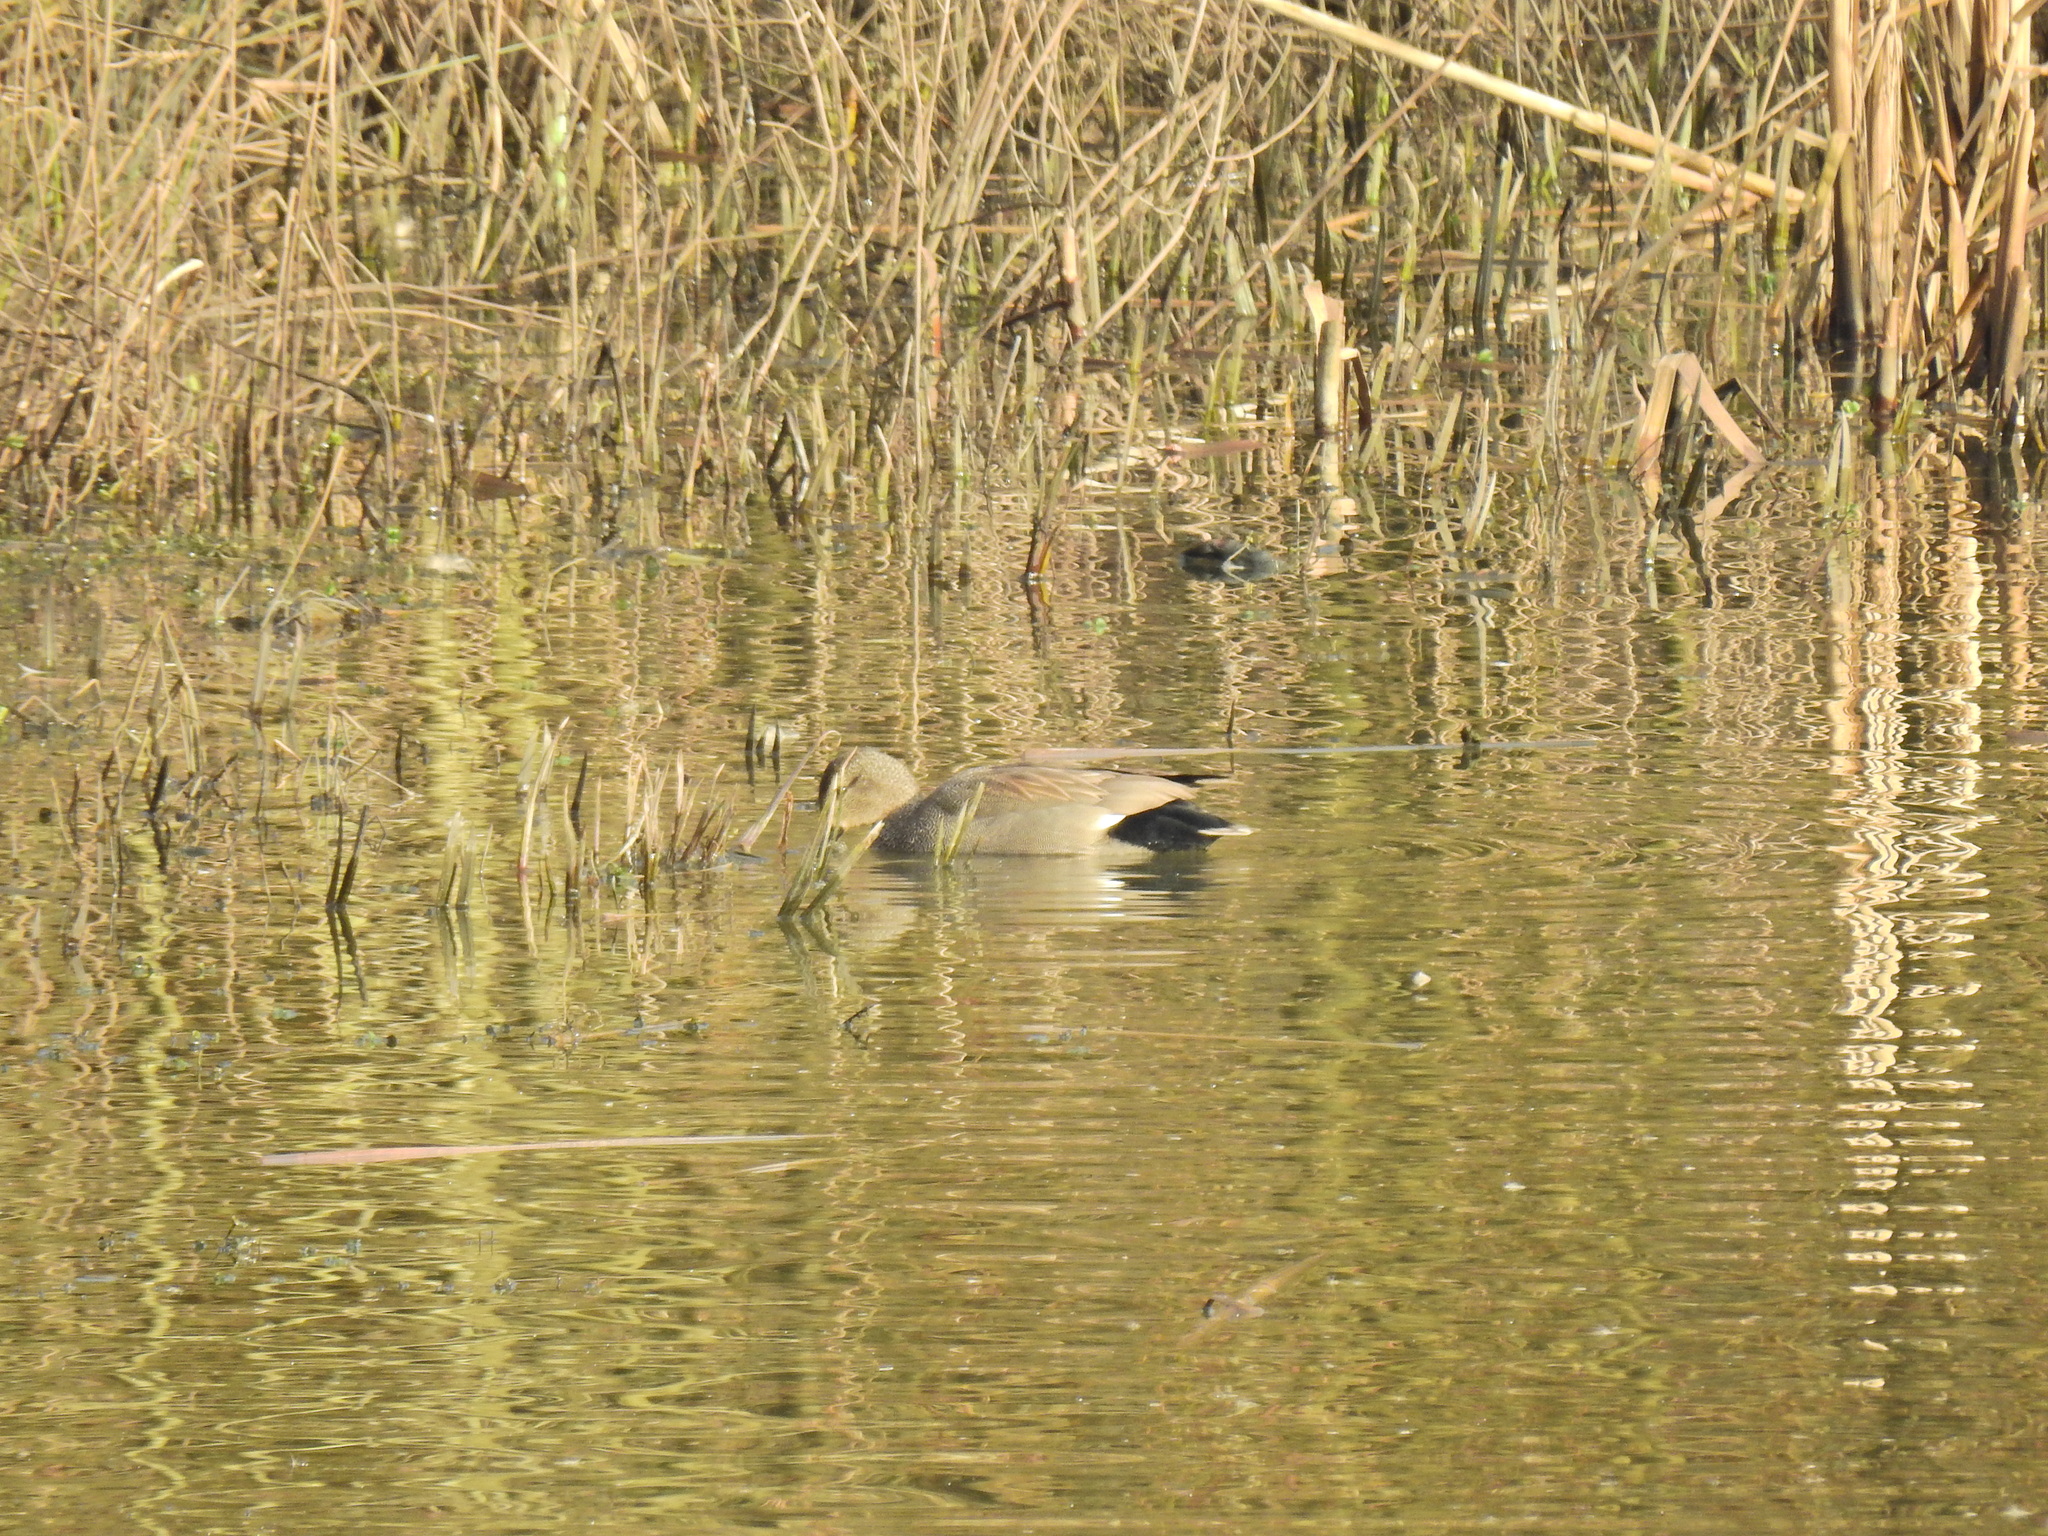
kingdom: Animalia
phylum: Chordata
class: Aves
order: Anseriformes
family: Anatidae
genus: Mareca
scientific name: Mareca strepera
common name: Gadwall
